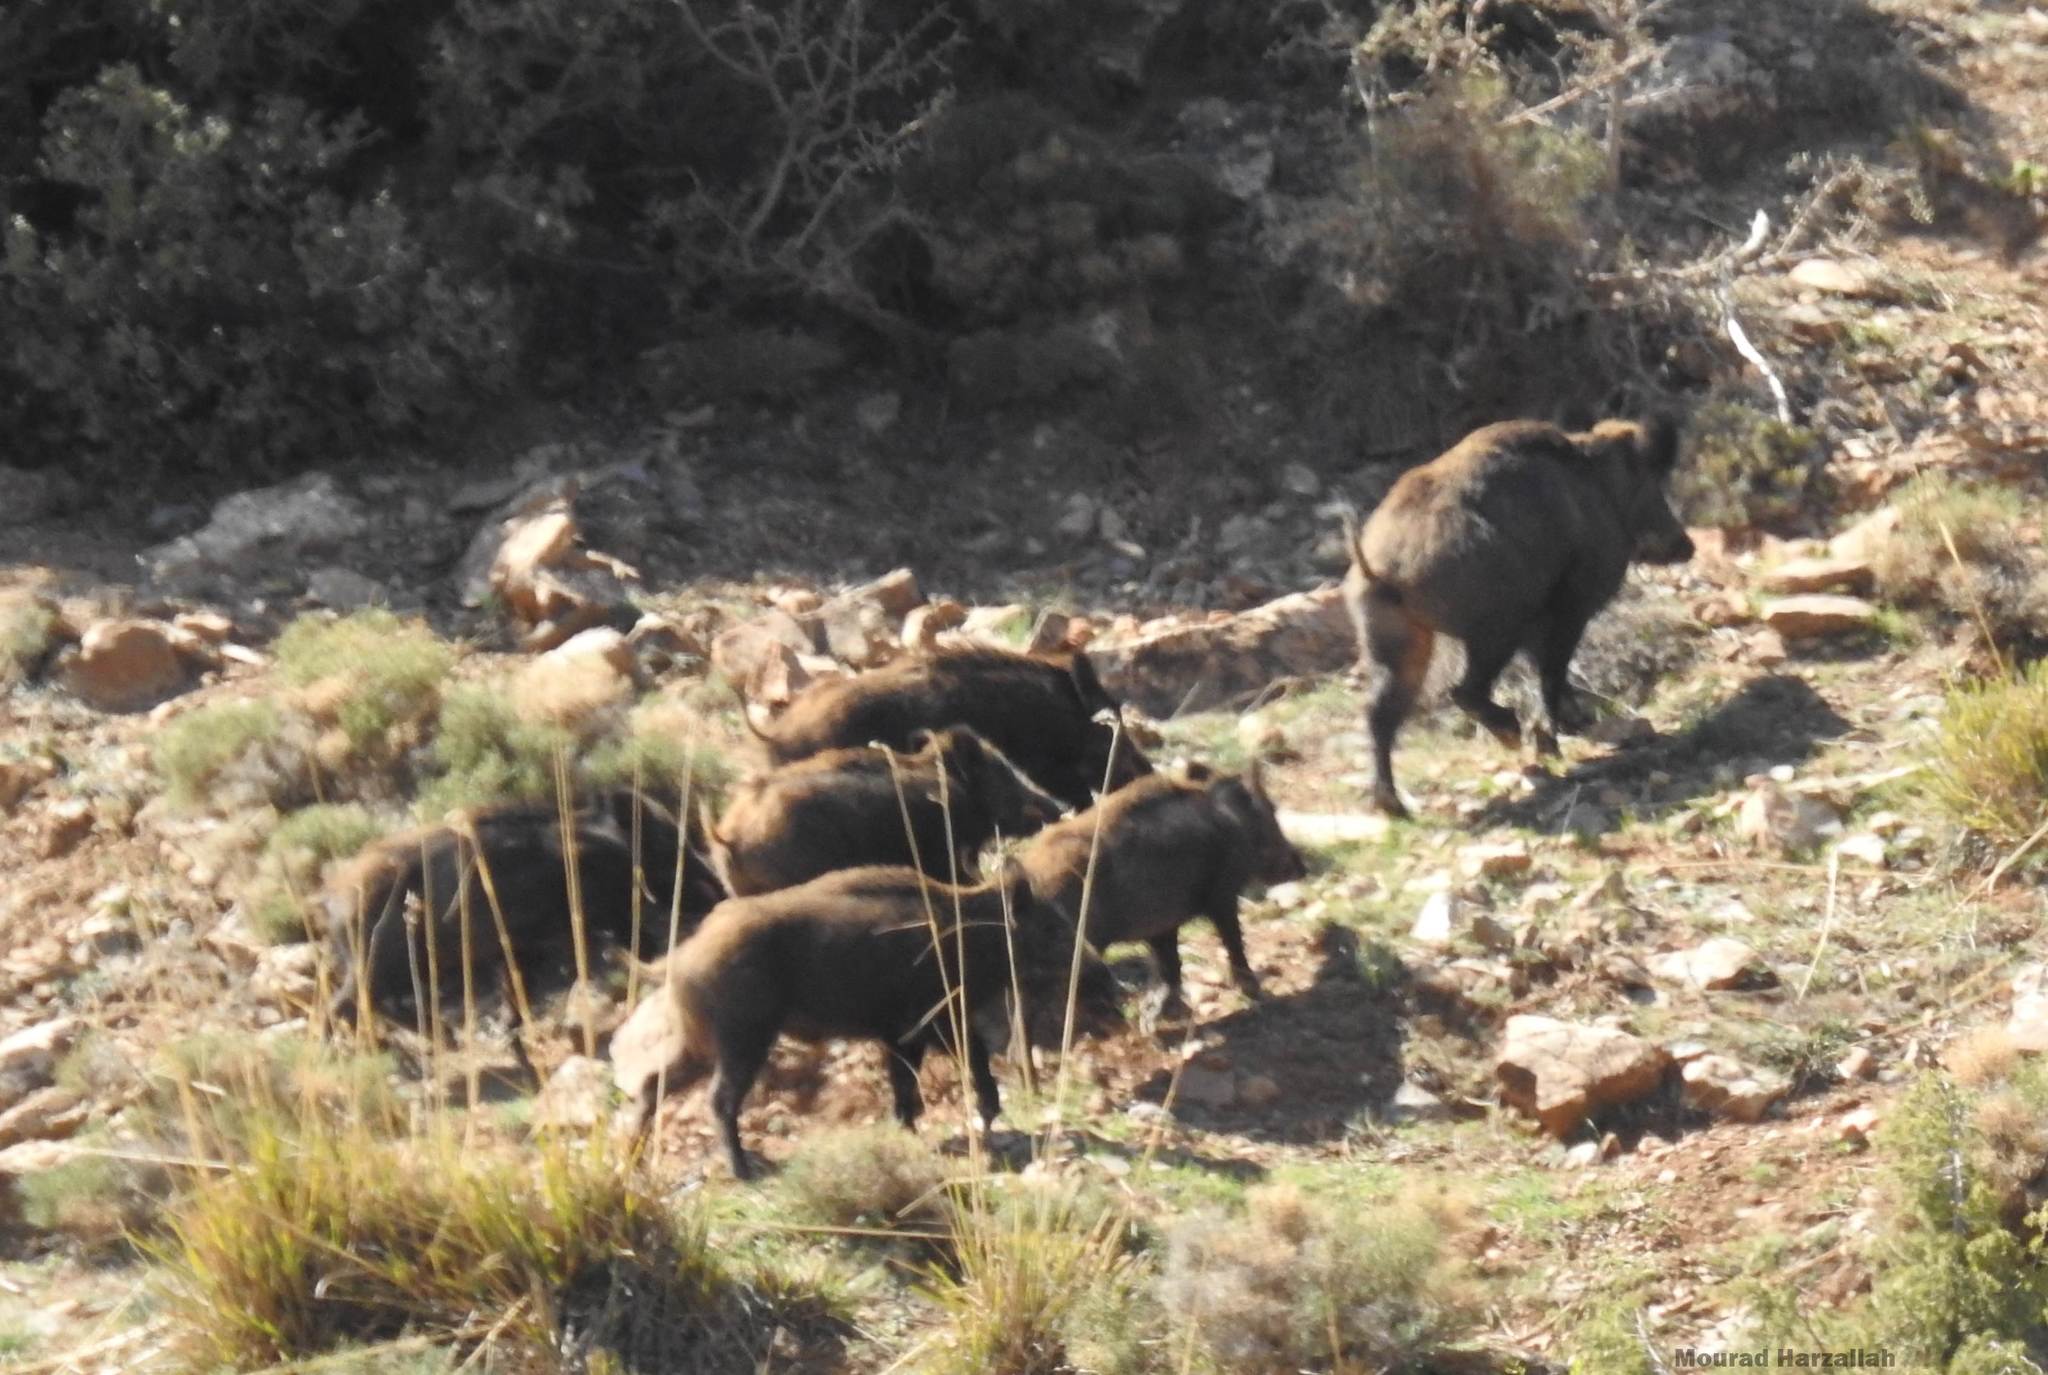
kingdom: Animalia
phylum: Chordata
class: Mammalia
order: Artiodactyla
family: Suidae
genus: Sus
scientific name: Sus scrofa
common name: Wild boar
